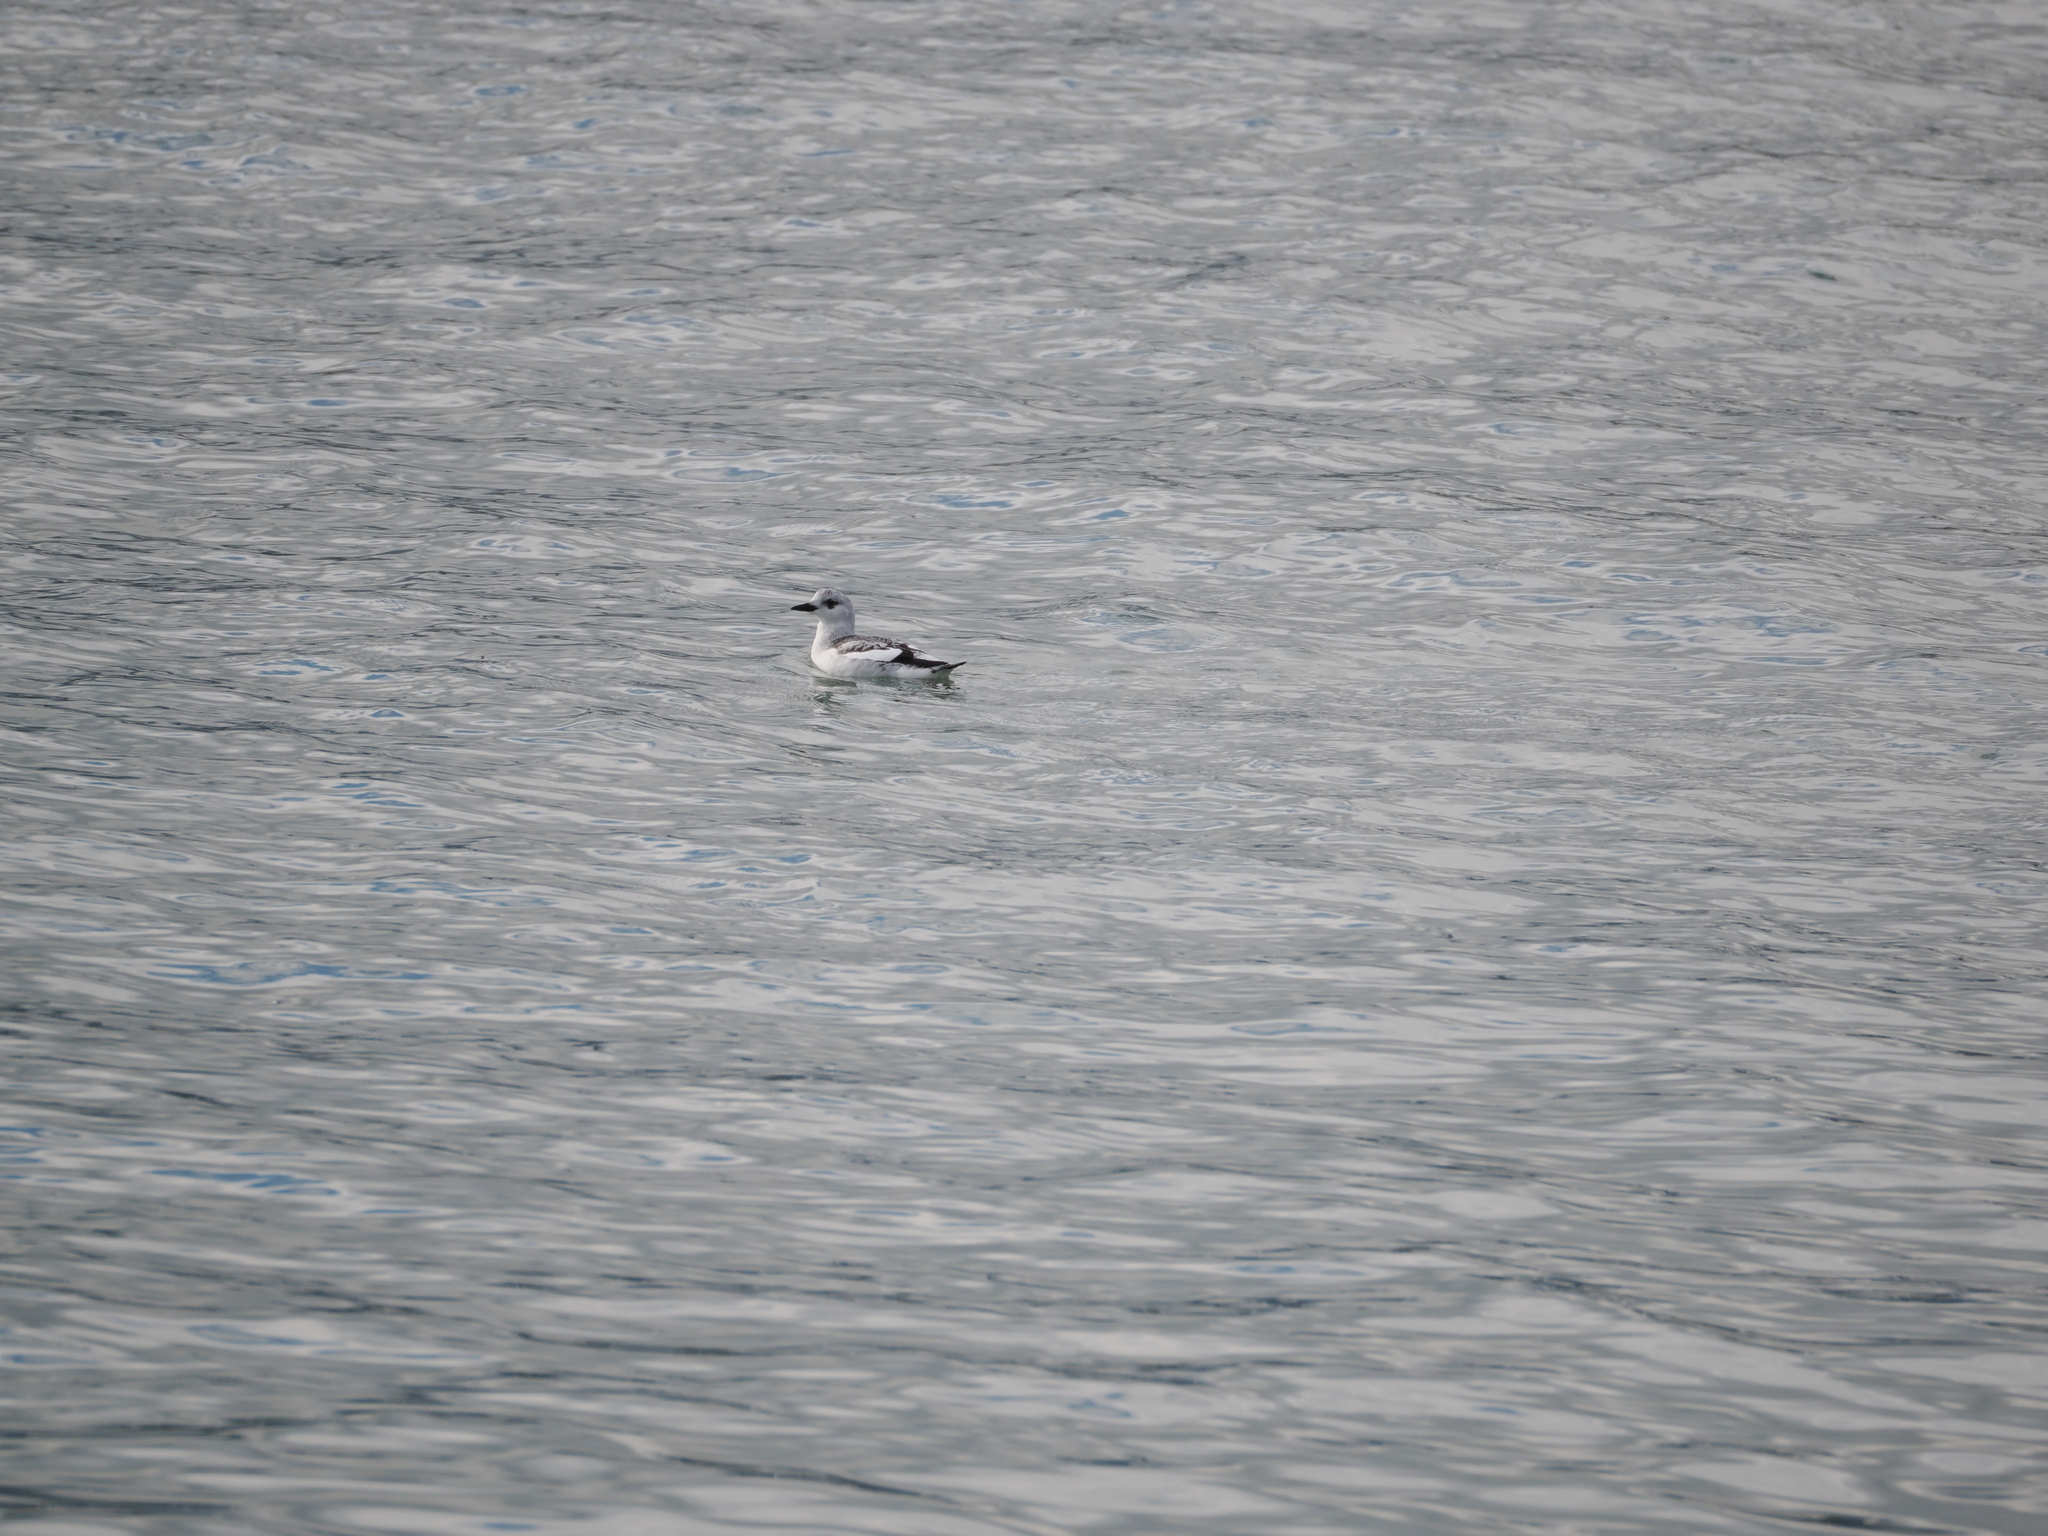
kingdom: Animalia
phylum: Chordata
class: Aves
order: Charadriiformes
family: Alcidae
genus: Cepphus
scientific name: Cepphus grylle
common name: Black guillemot
